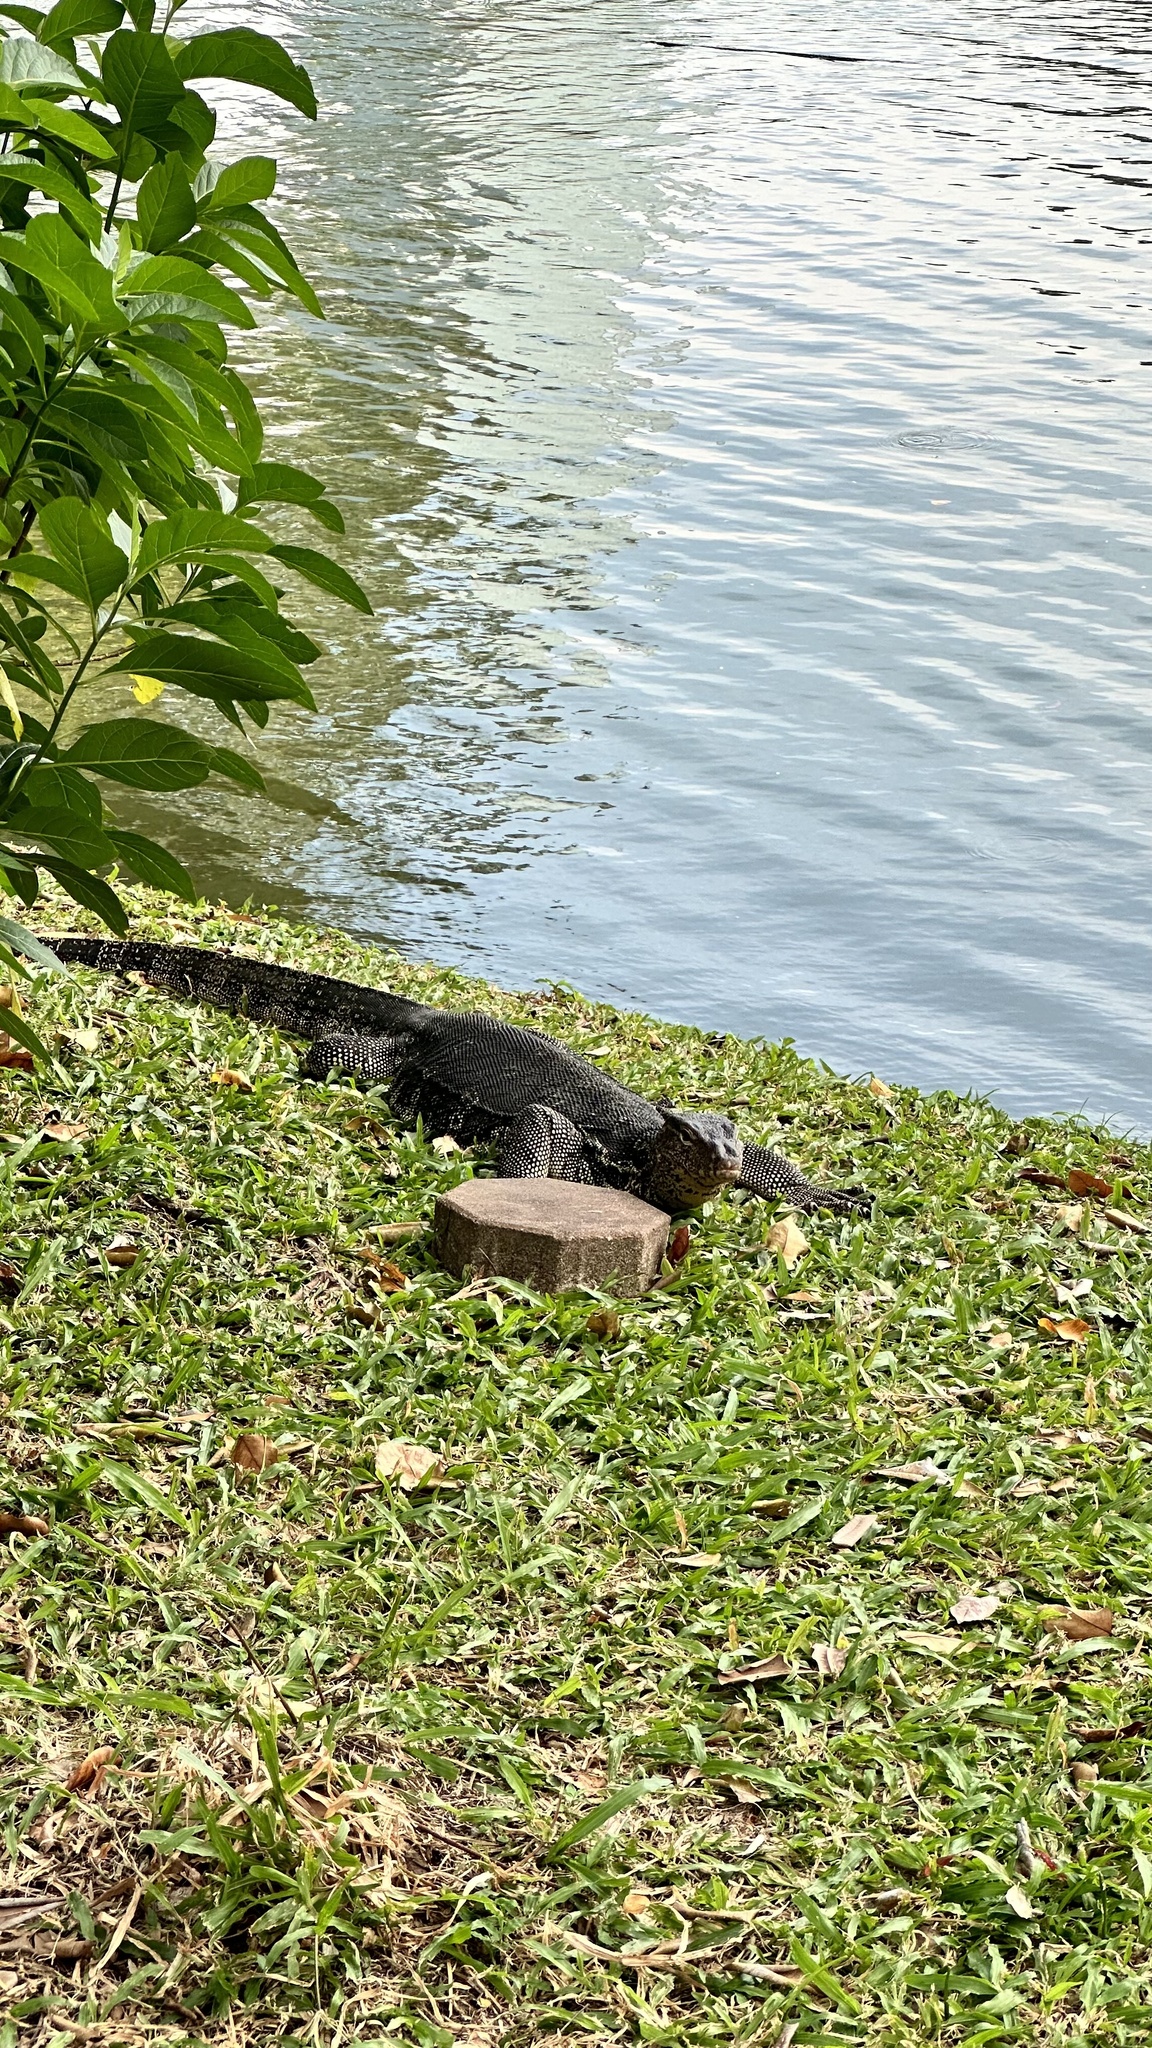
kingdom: Animalia
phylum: Chordata
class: Squamata
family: Varanidae
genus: Varanus
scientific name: Varanus salvator
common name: Common water monitor
